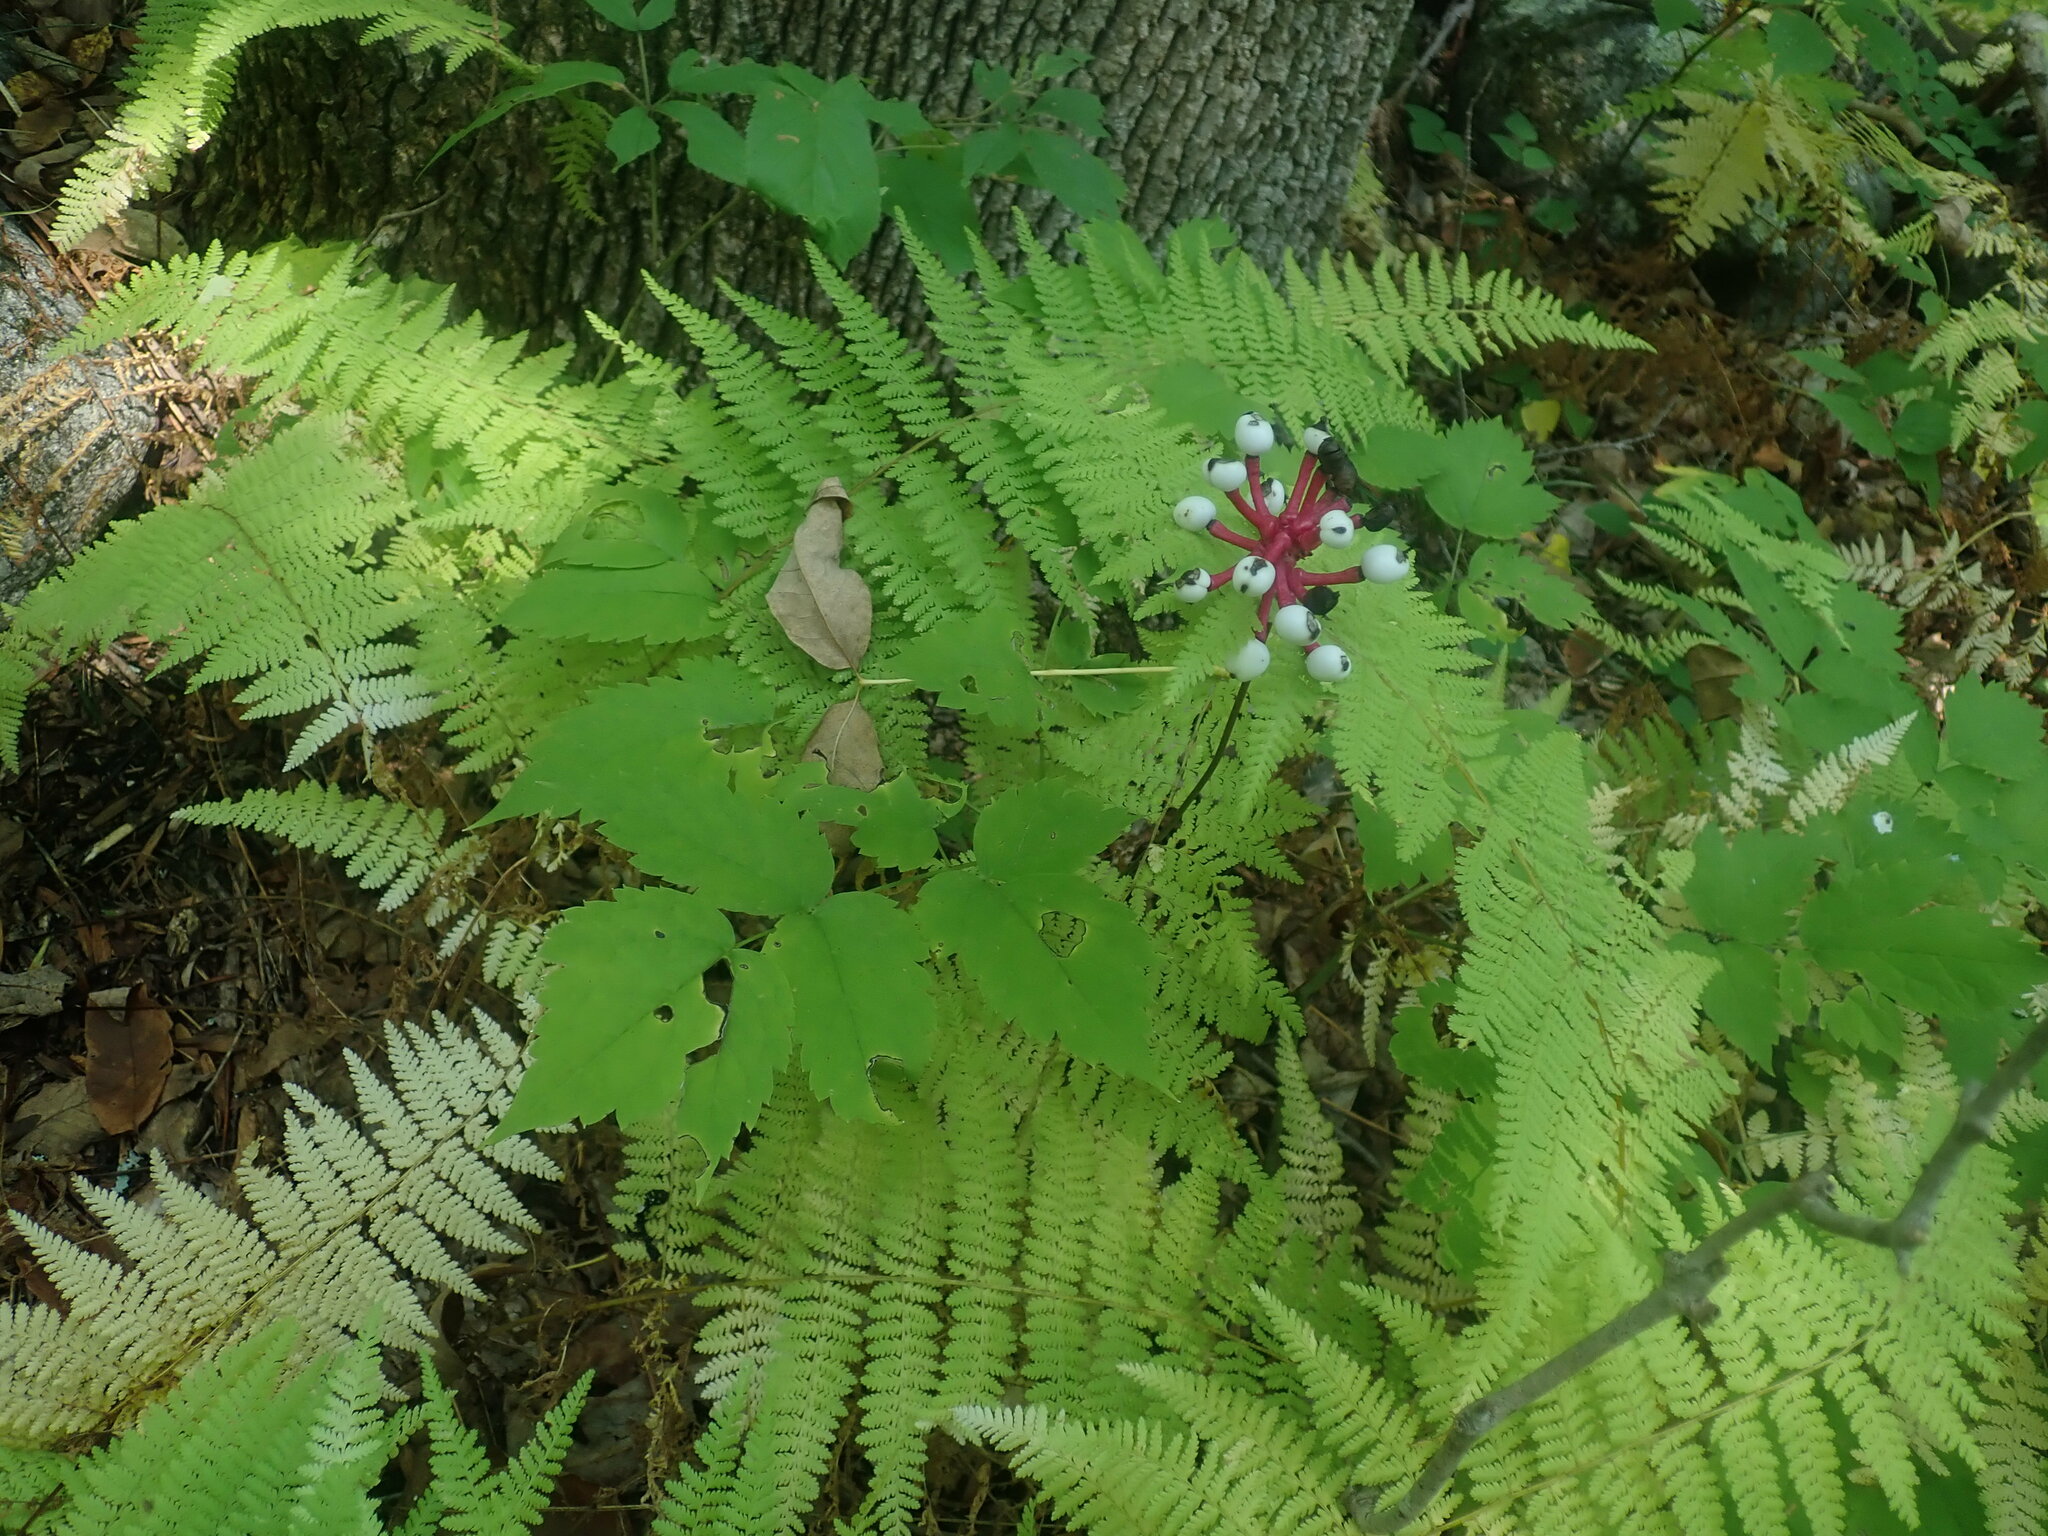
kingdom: Plantae
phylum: Tracheophyta
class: Magnoliopsida
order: Ranunculales
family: Ranunculaceae
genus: Actaea
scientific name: Actaea pachypoda
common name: Doll's-eyes
